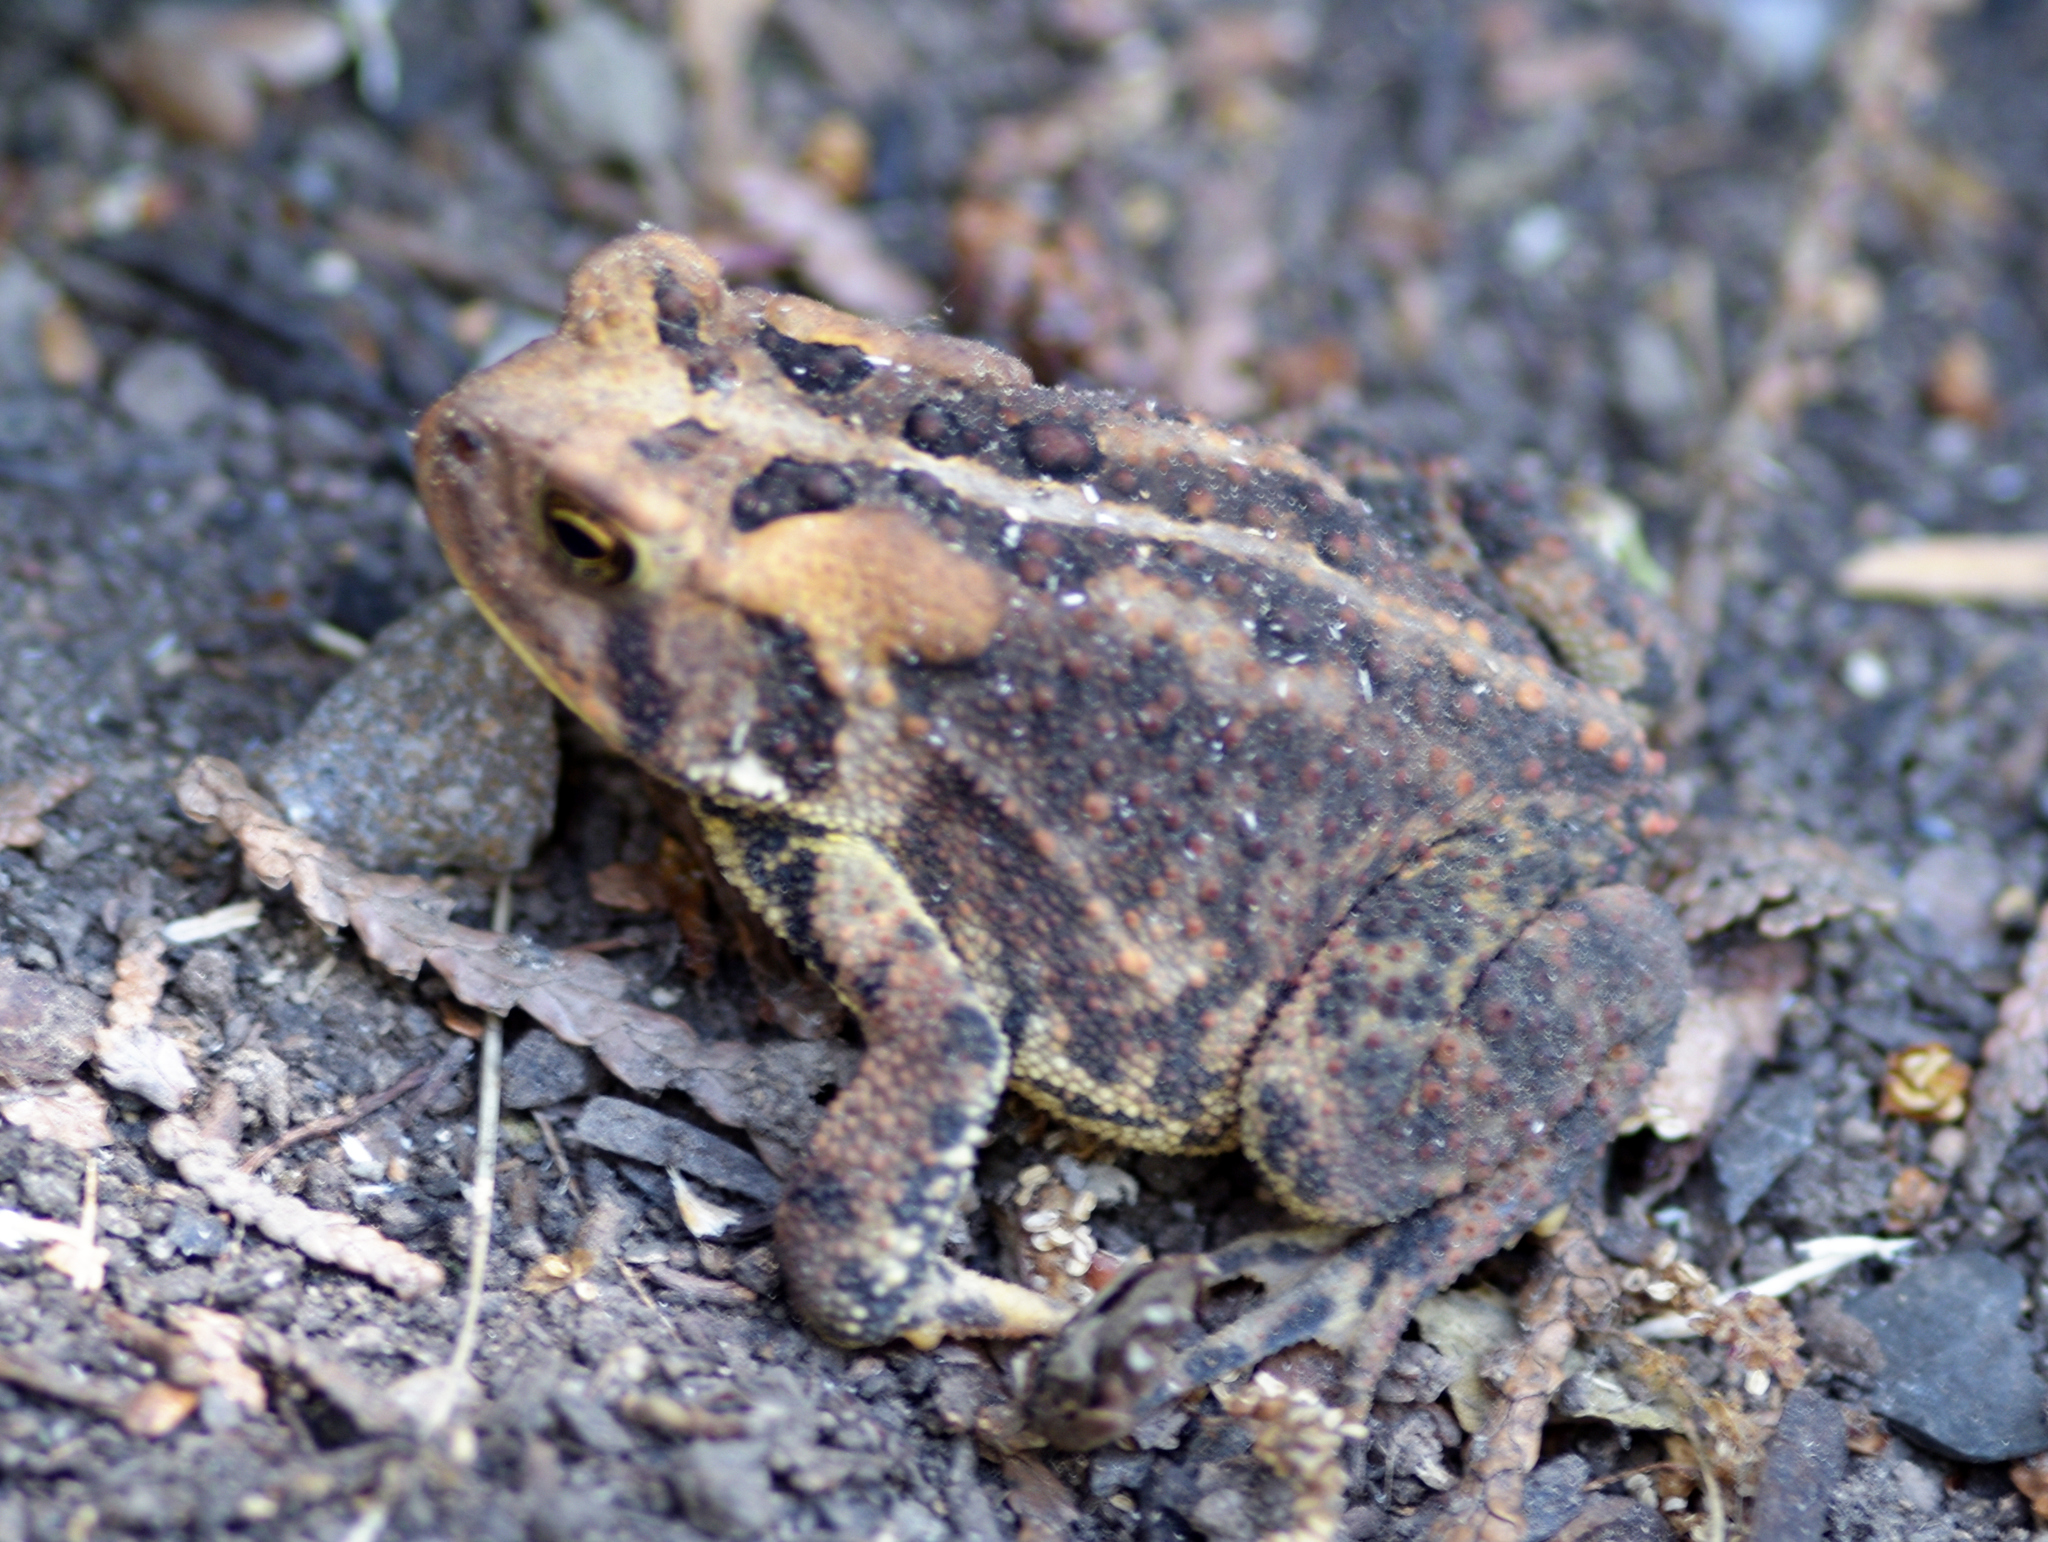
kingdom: Animalia
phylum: Chordata
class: Amphibia
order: Anura
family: Bufonidae
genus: Anaxyrus
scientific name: Anaxyrus americanus
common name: American toad
